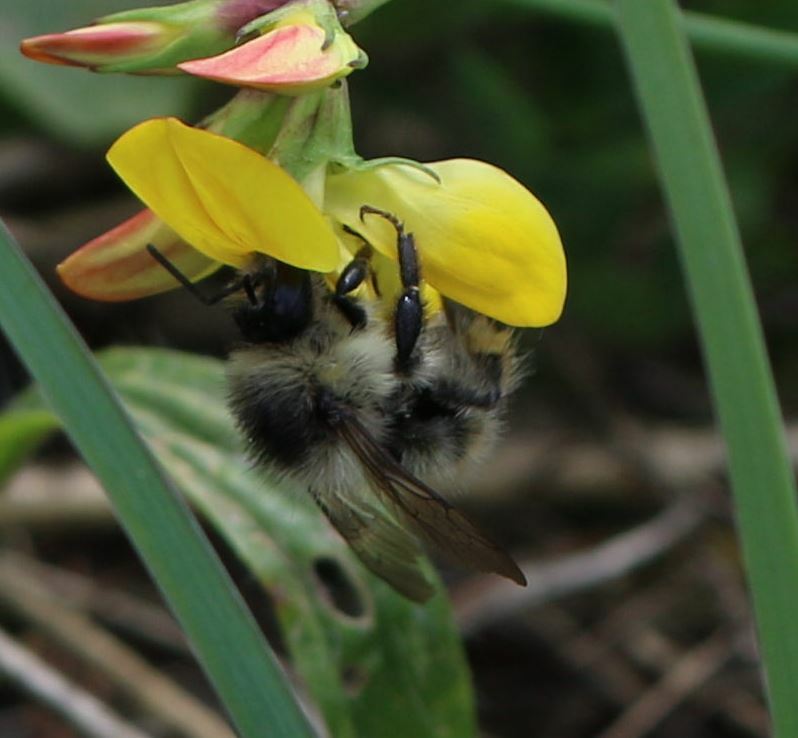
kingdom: Animalia
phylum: Arthropoda
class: Insecta
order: Hymenoptera
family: Apidae
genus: Bombus
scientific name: Bombus sylvarum
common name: Shrill carder bee
